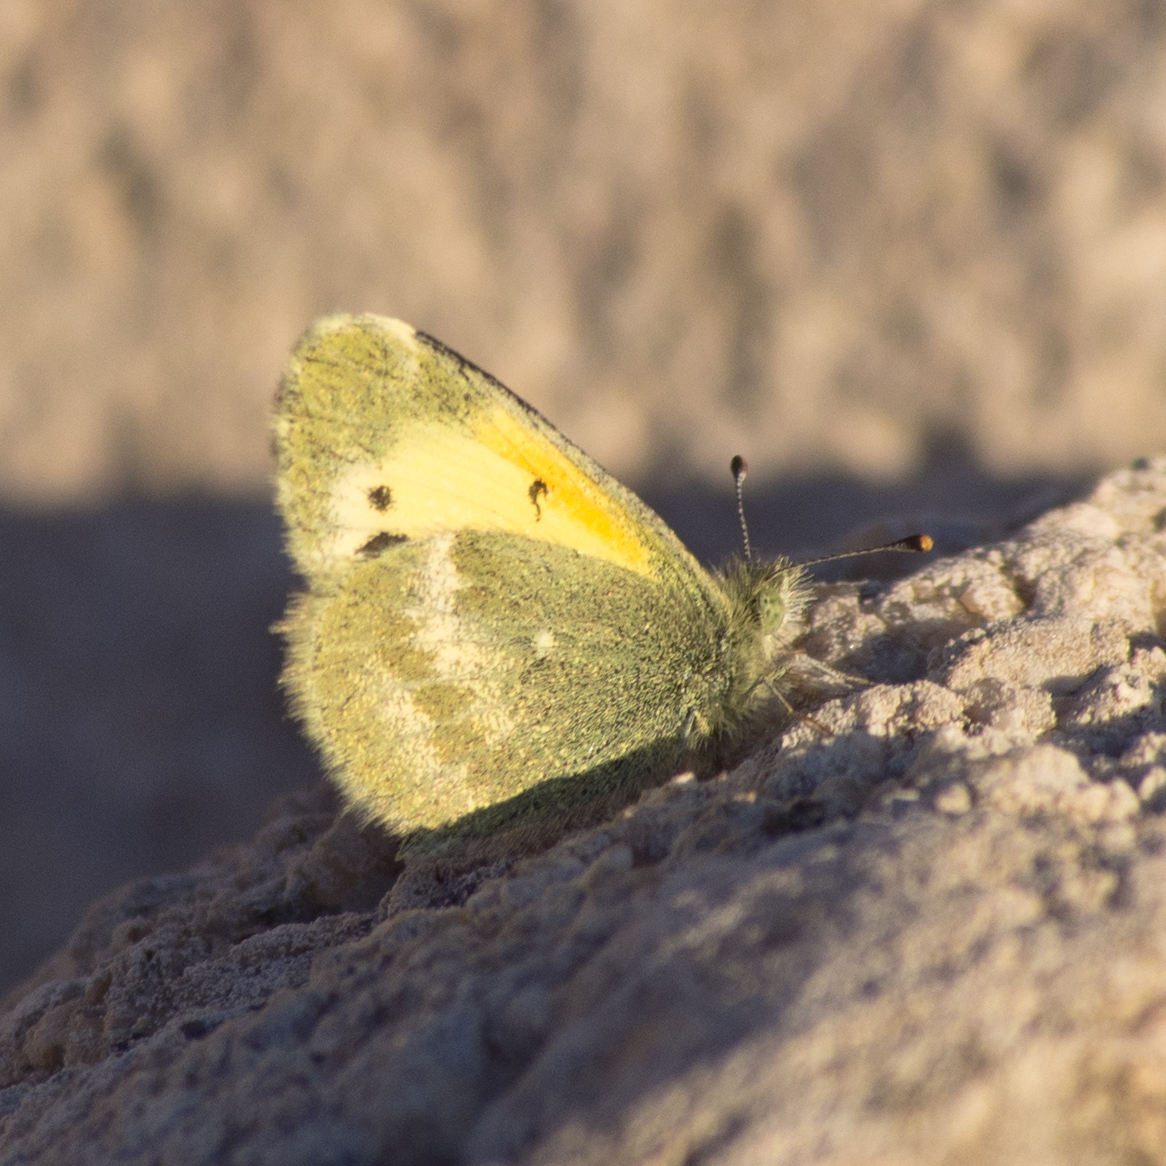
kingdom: Animalia
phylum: Arthropoda
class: Insecta
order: Lepidoptera
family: Pieridae
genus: Nathalis
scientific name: Nathalis iole
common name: Dainty sulphur
